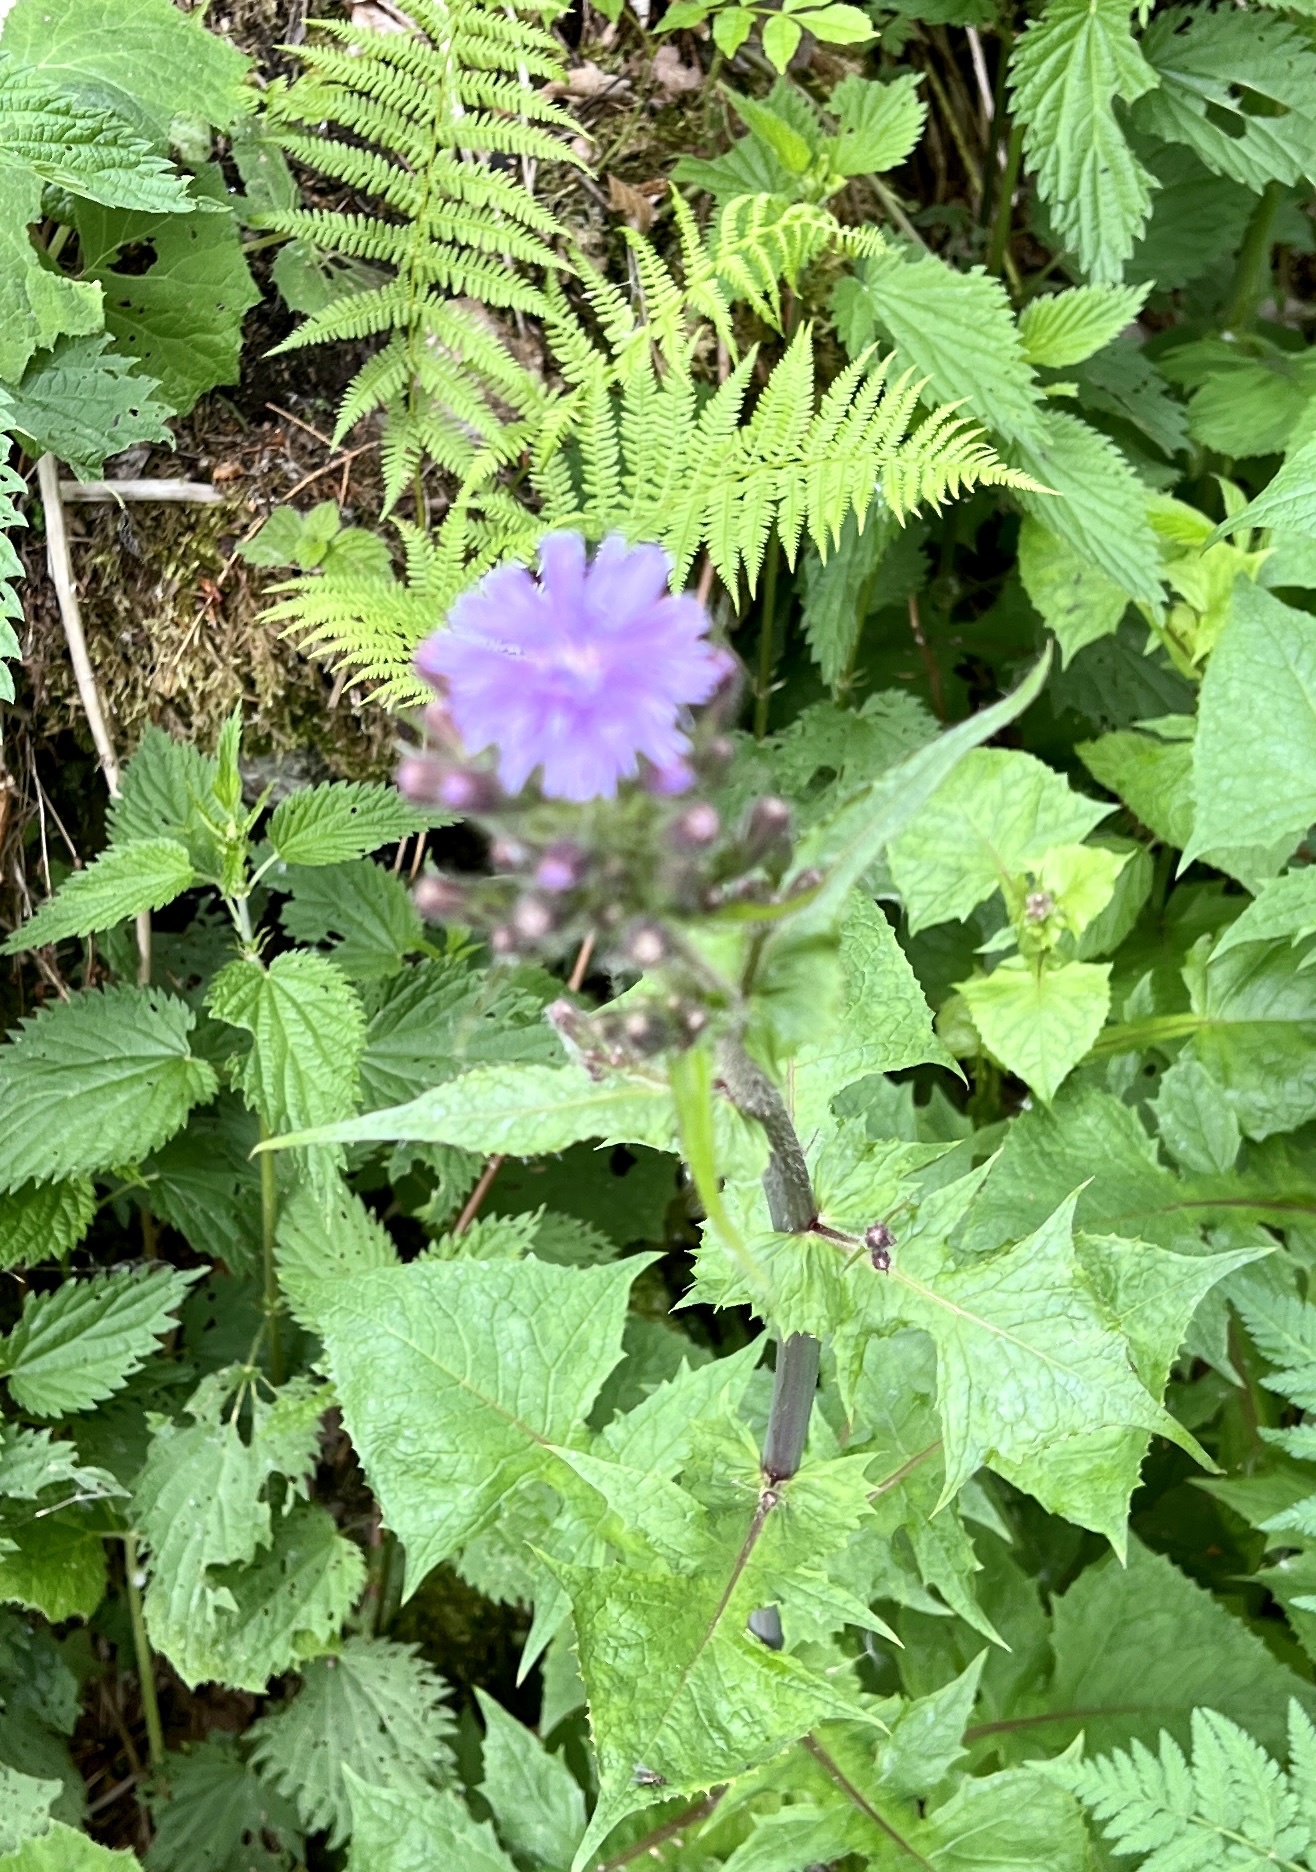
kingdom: Plantae
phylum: Tracheophyta
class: Magnoliopsida
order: Asterales
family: Asteraceae
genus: Cicerbita
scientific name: Cicerbita alpina
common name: Alpine blue-sow-thistle
